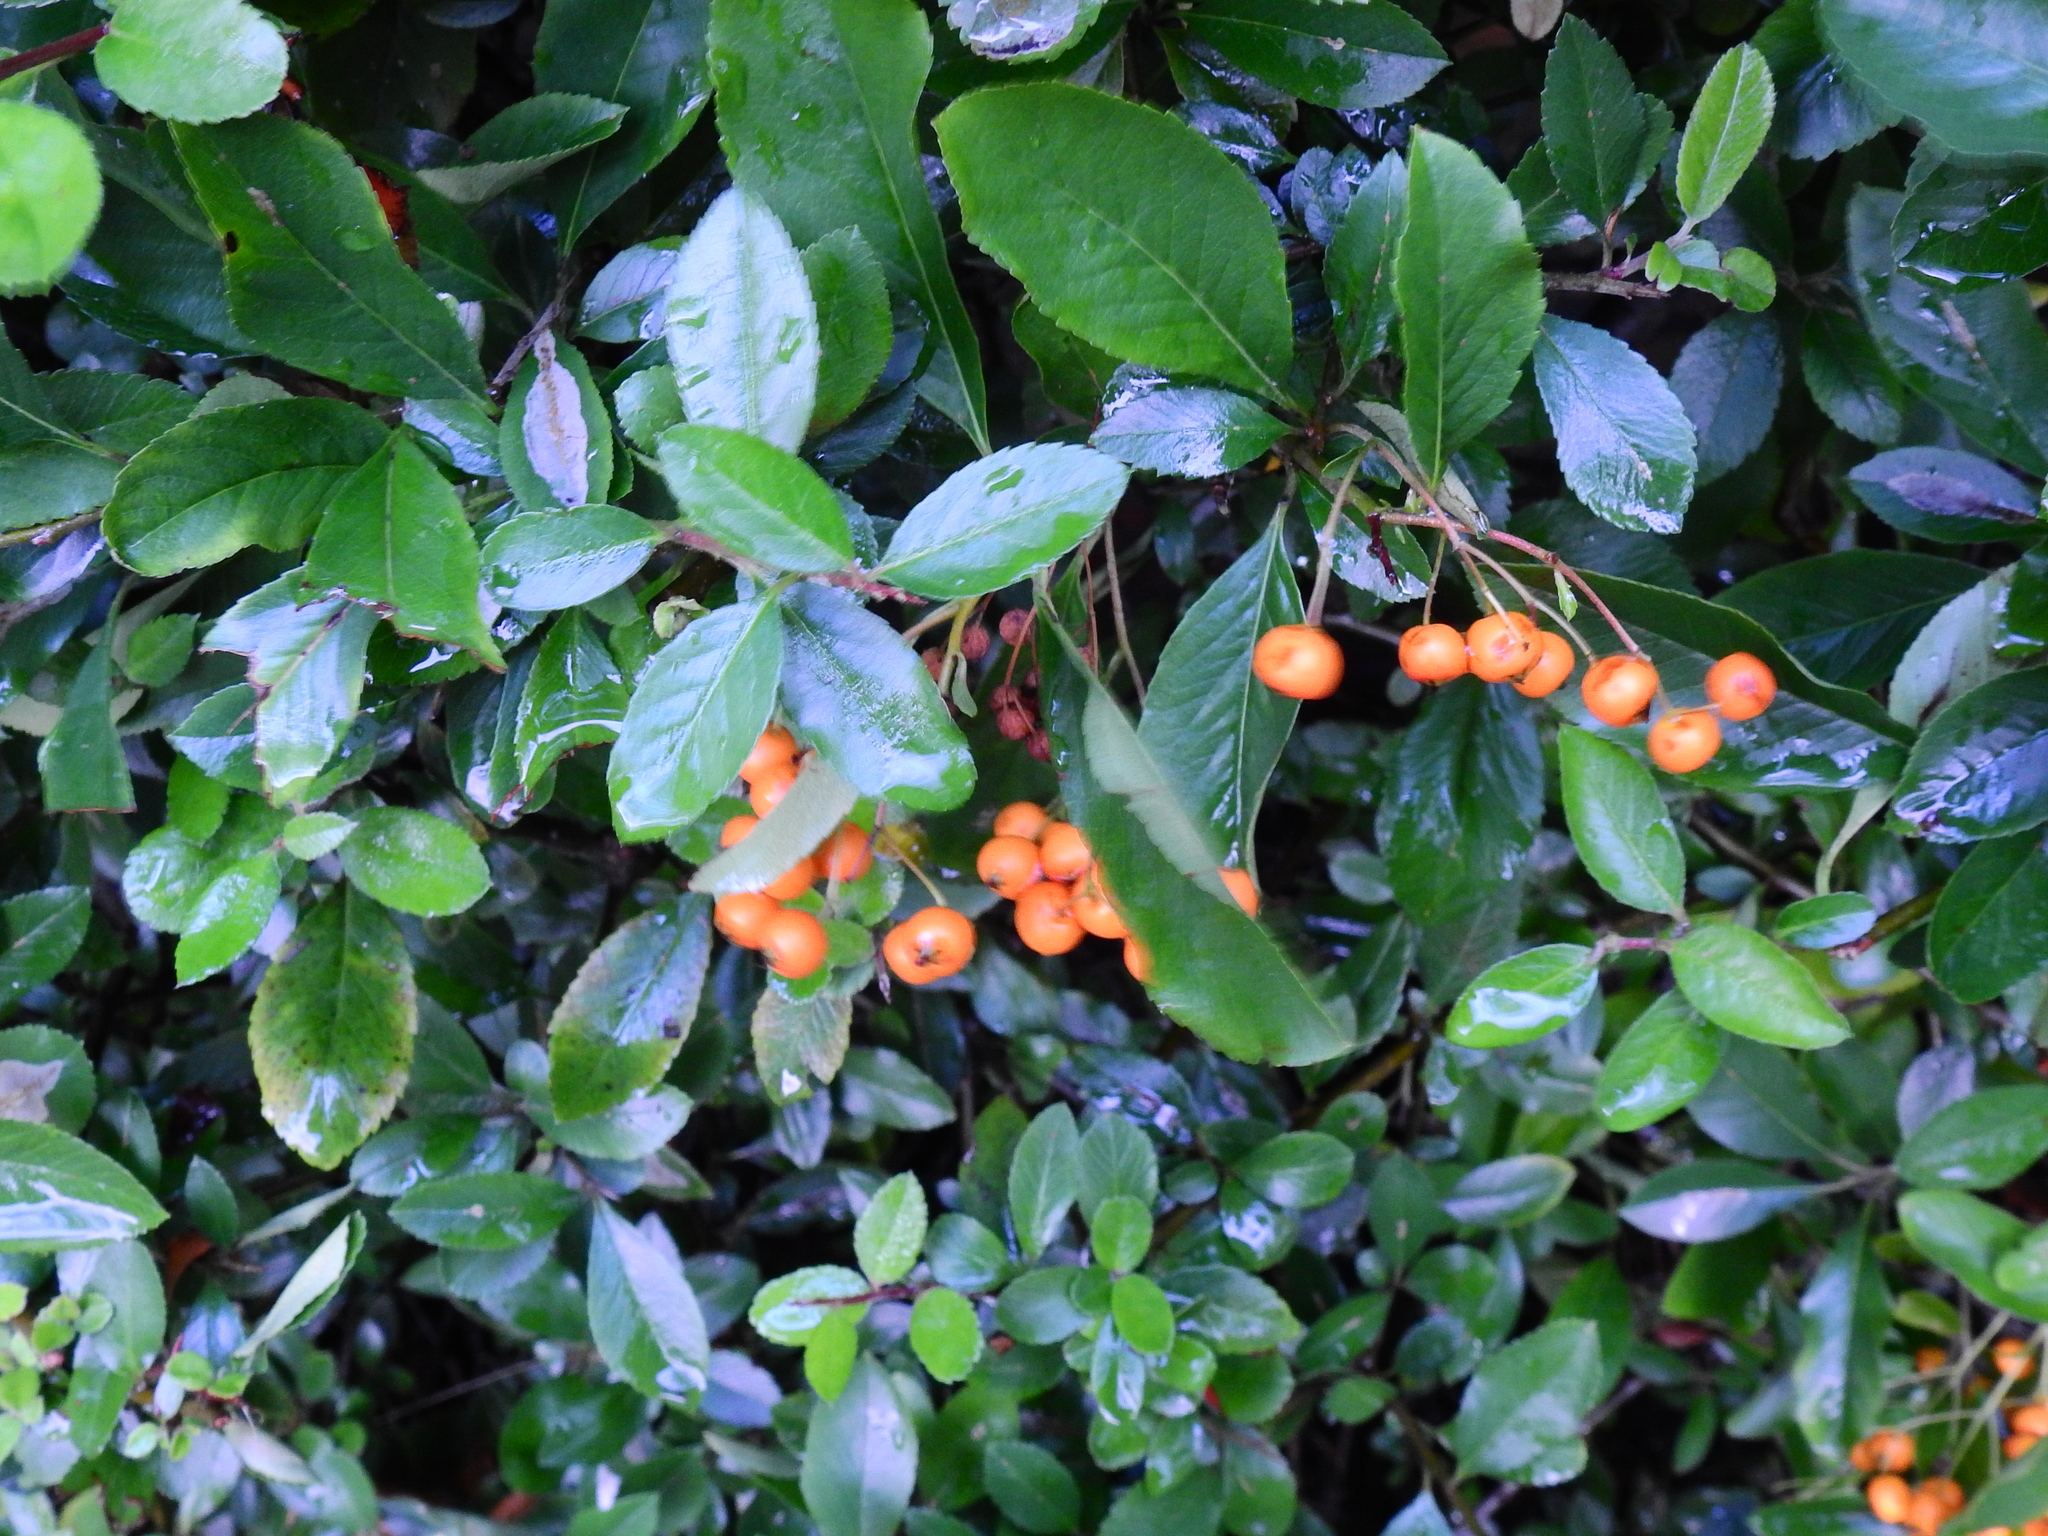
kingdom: Plantae
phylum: Tracheophyta
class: Magnoliopsida
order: Rosales
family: Rosaceae
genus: Pyracantha
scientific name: Pyracantha coccinea
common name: Firethorn
